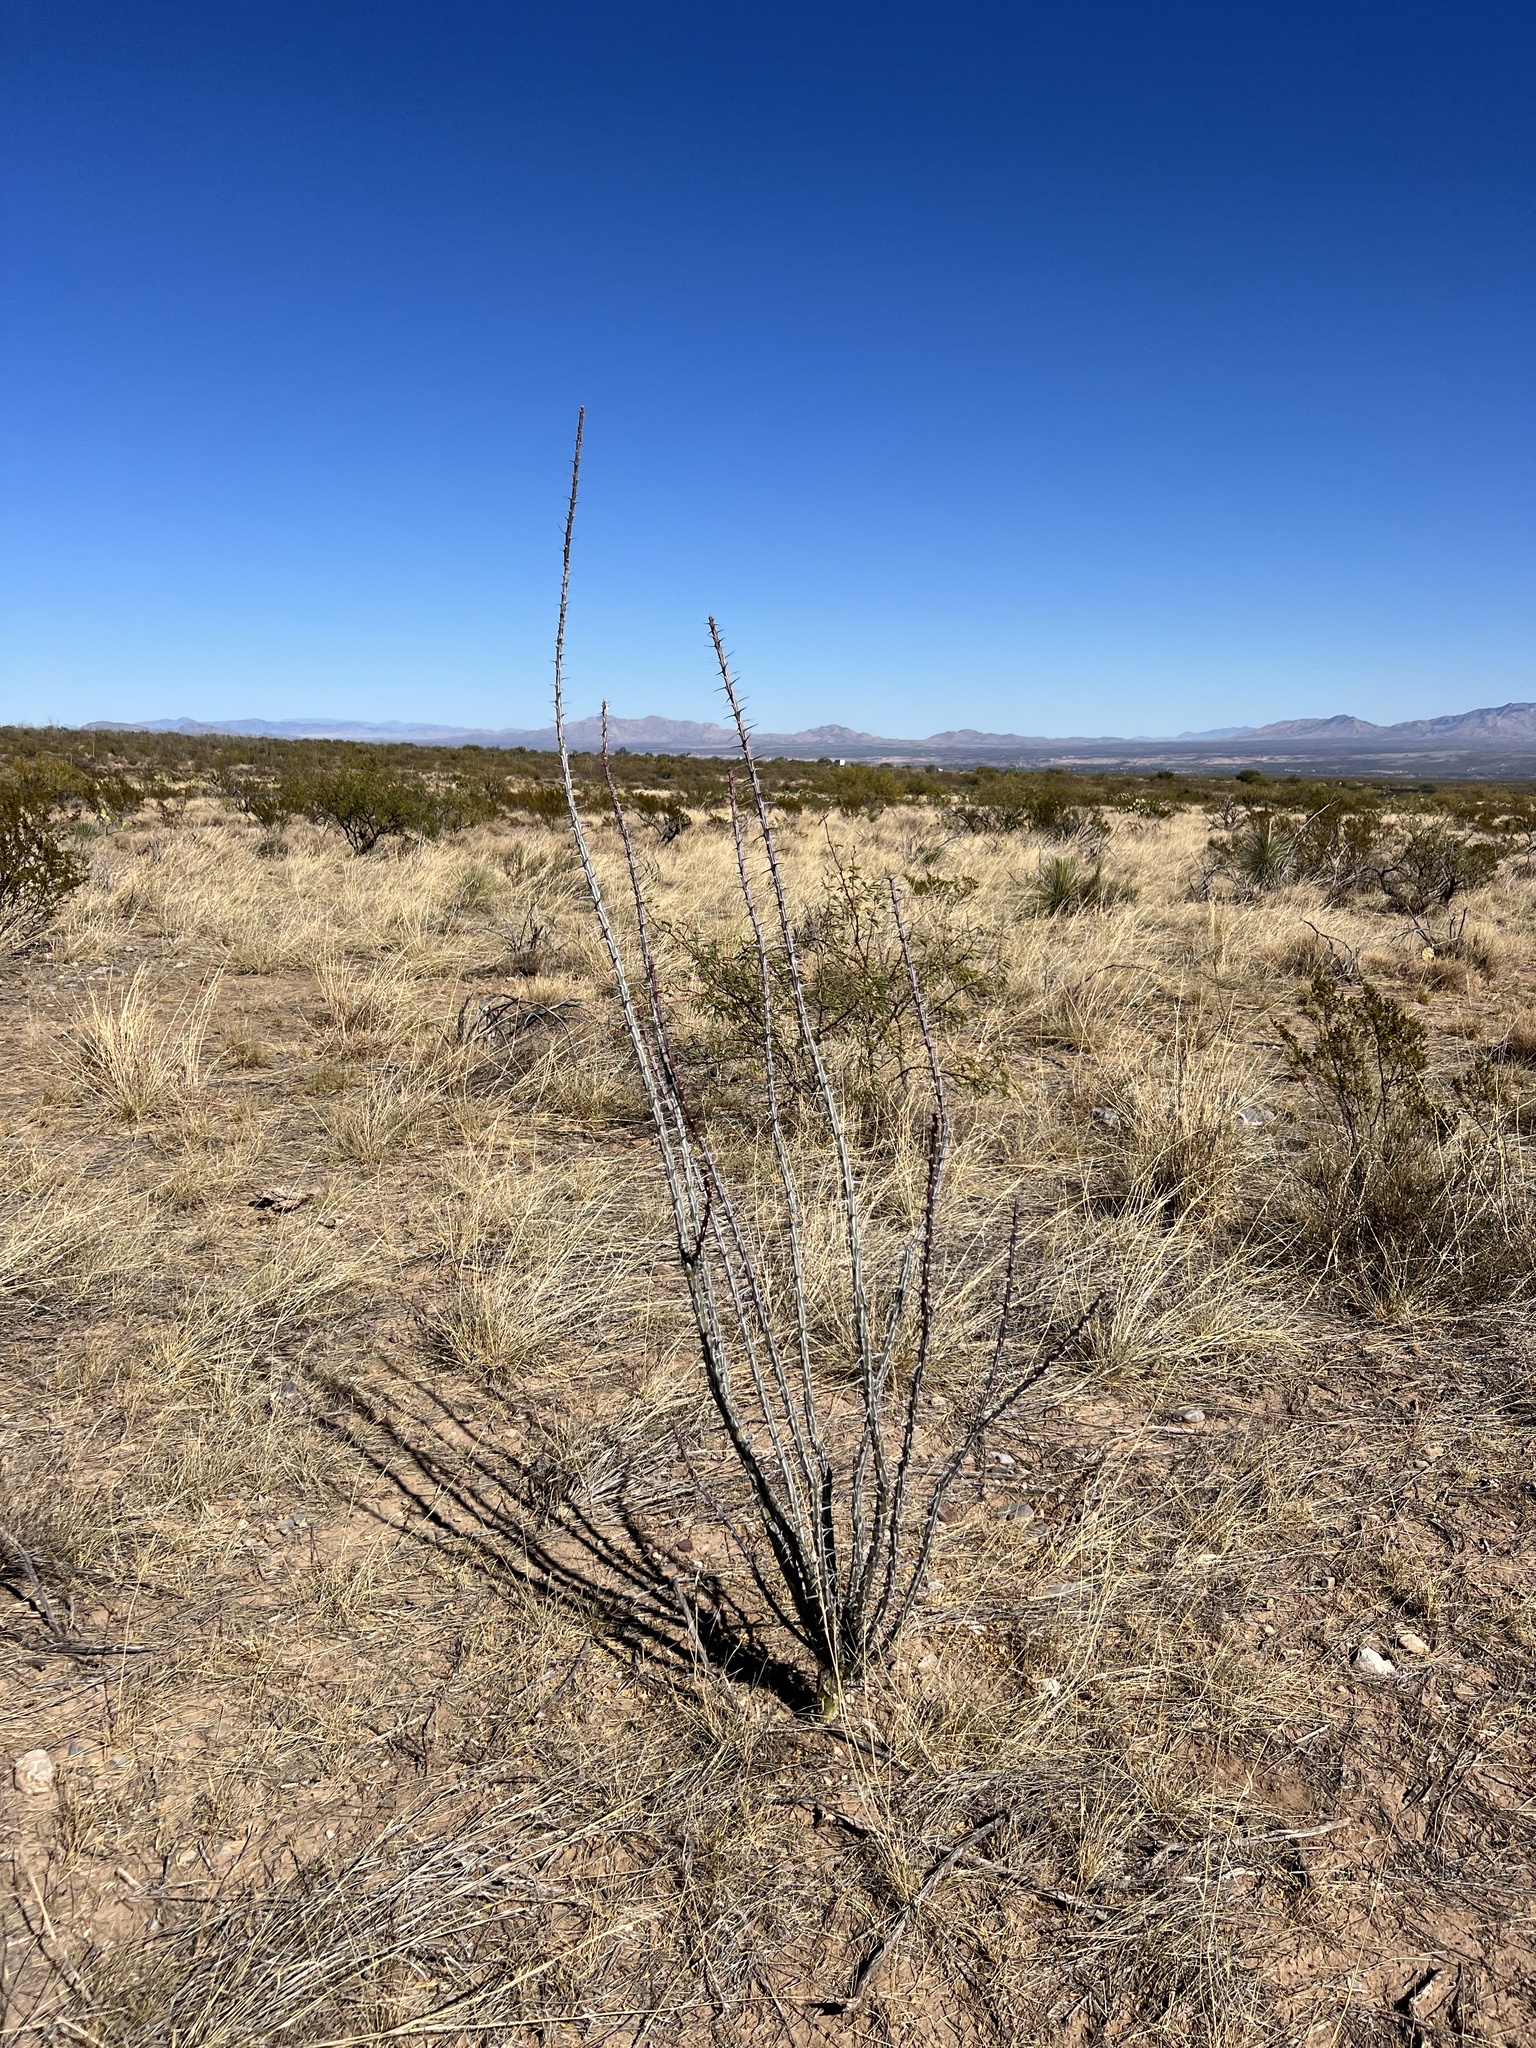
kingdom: Plantae
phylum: Tracheophyta
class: Magnoliopsida
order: Ericales
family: Fouquieriaceae
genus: Fouquieria
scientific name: Fouquieria splendens
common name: Vine-cactus
